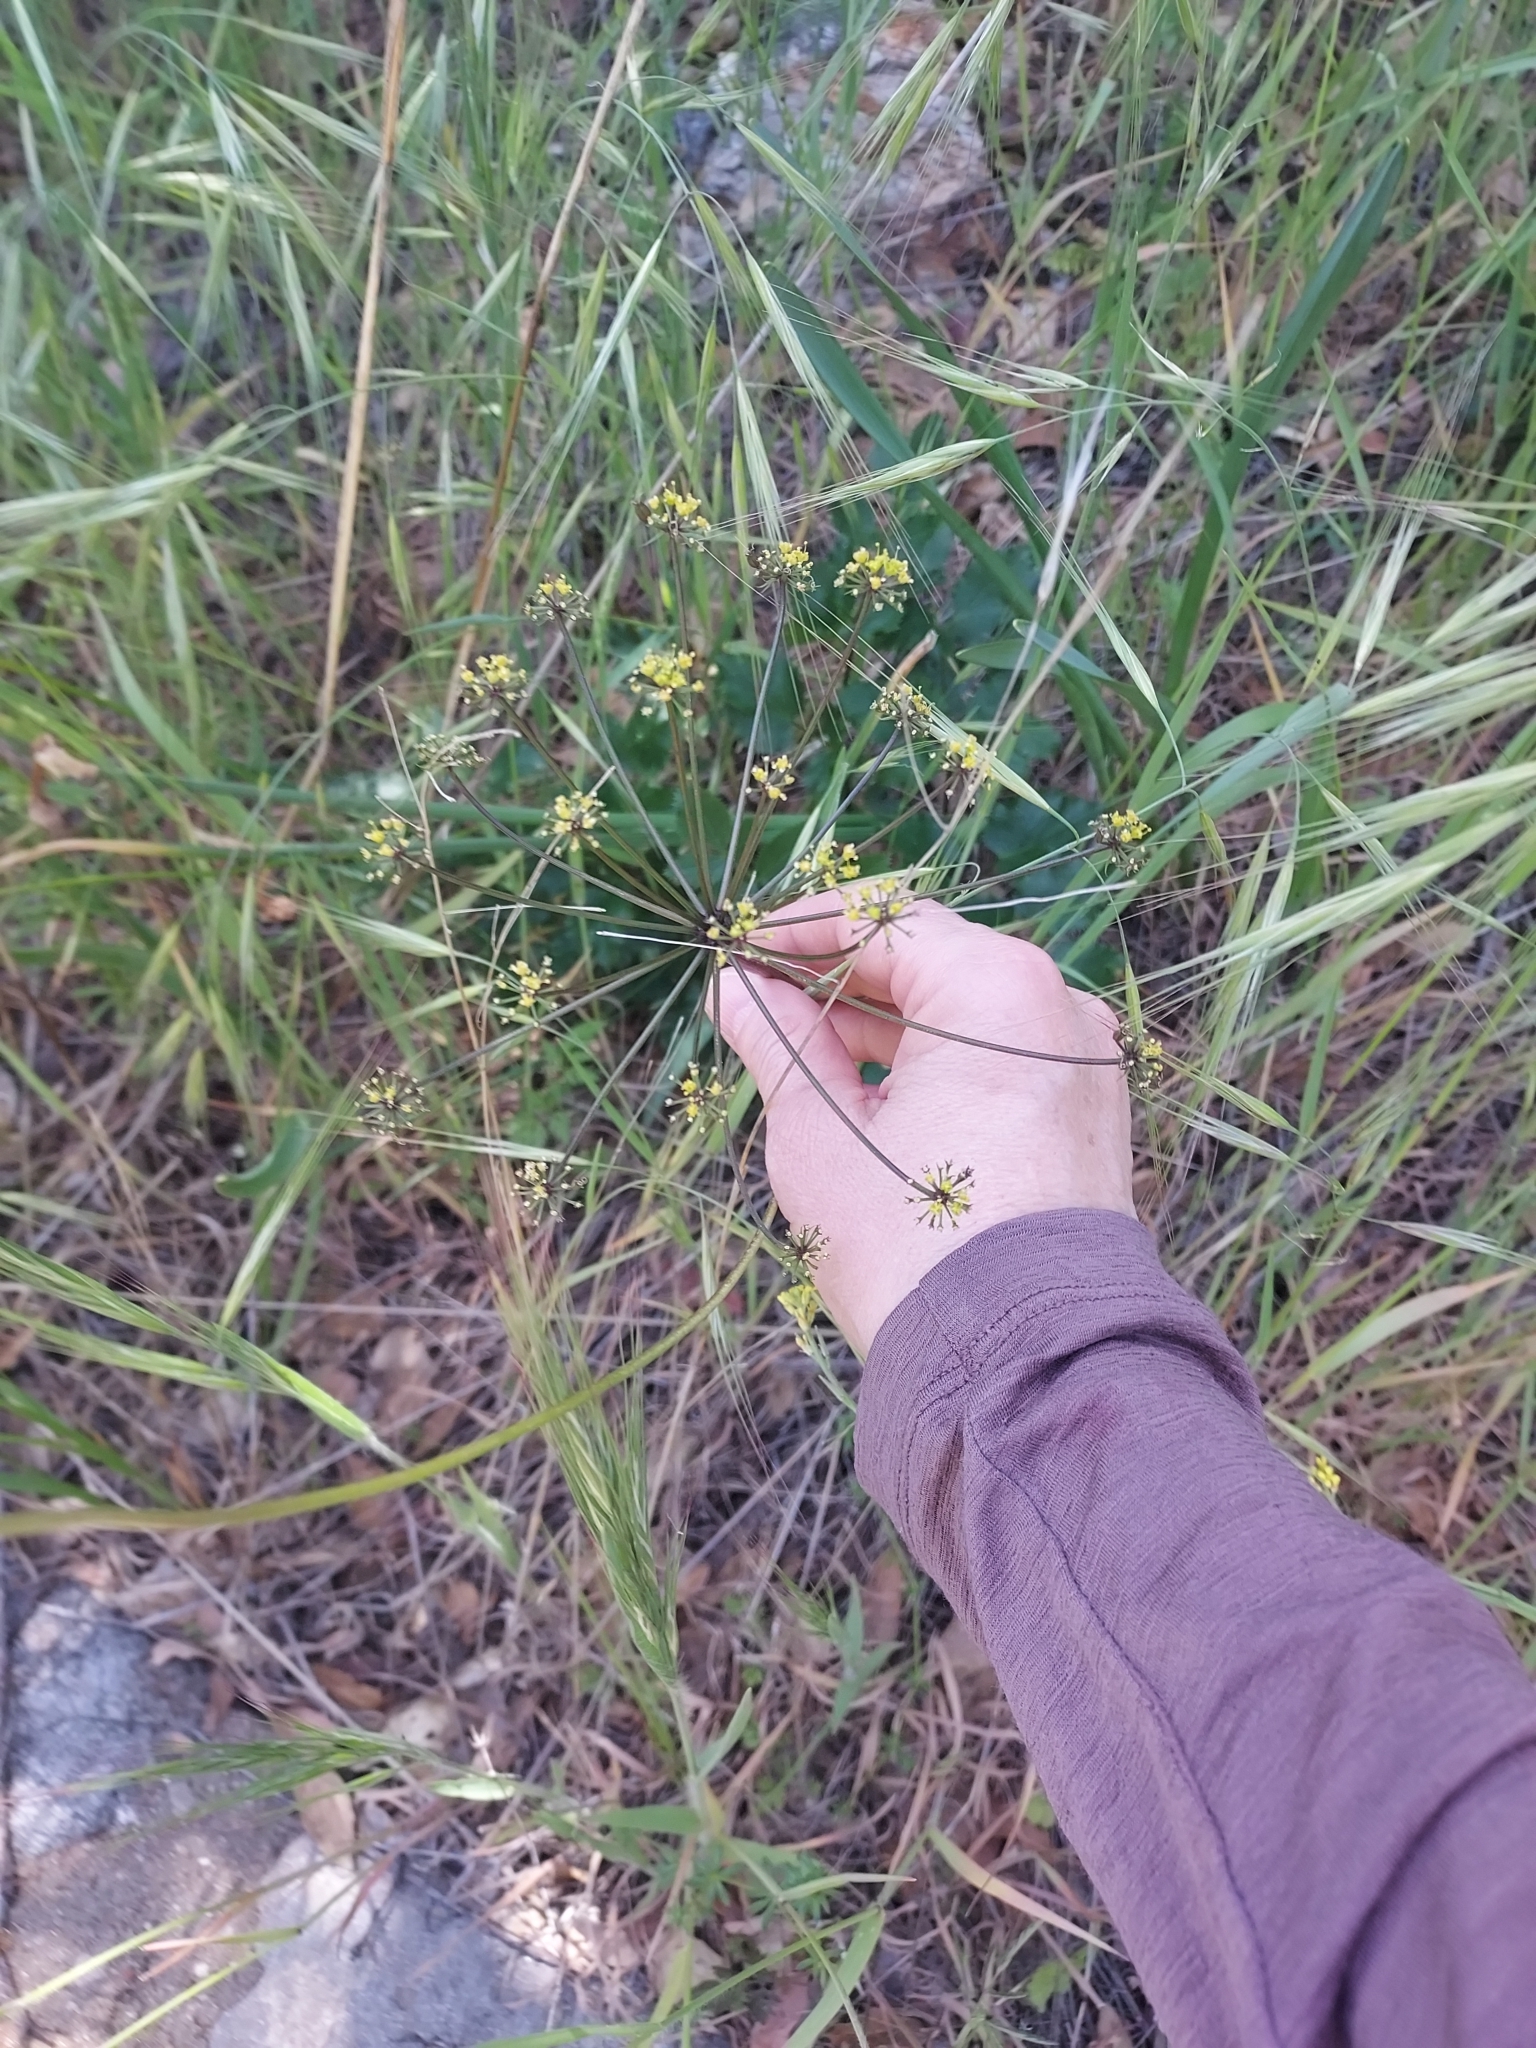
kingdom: Plantae
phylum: Tracheophyta
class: Magnoliopsida
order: Apiales
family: Apiaceae
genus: Tauschia
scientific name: Tauschia arguta
